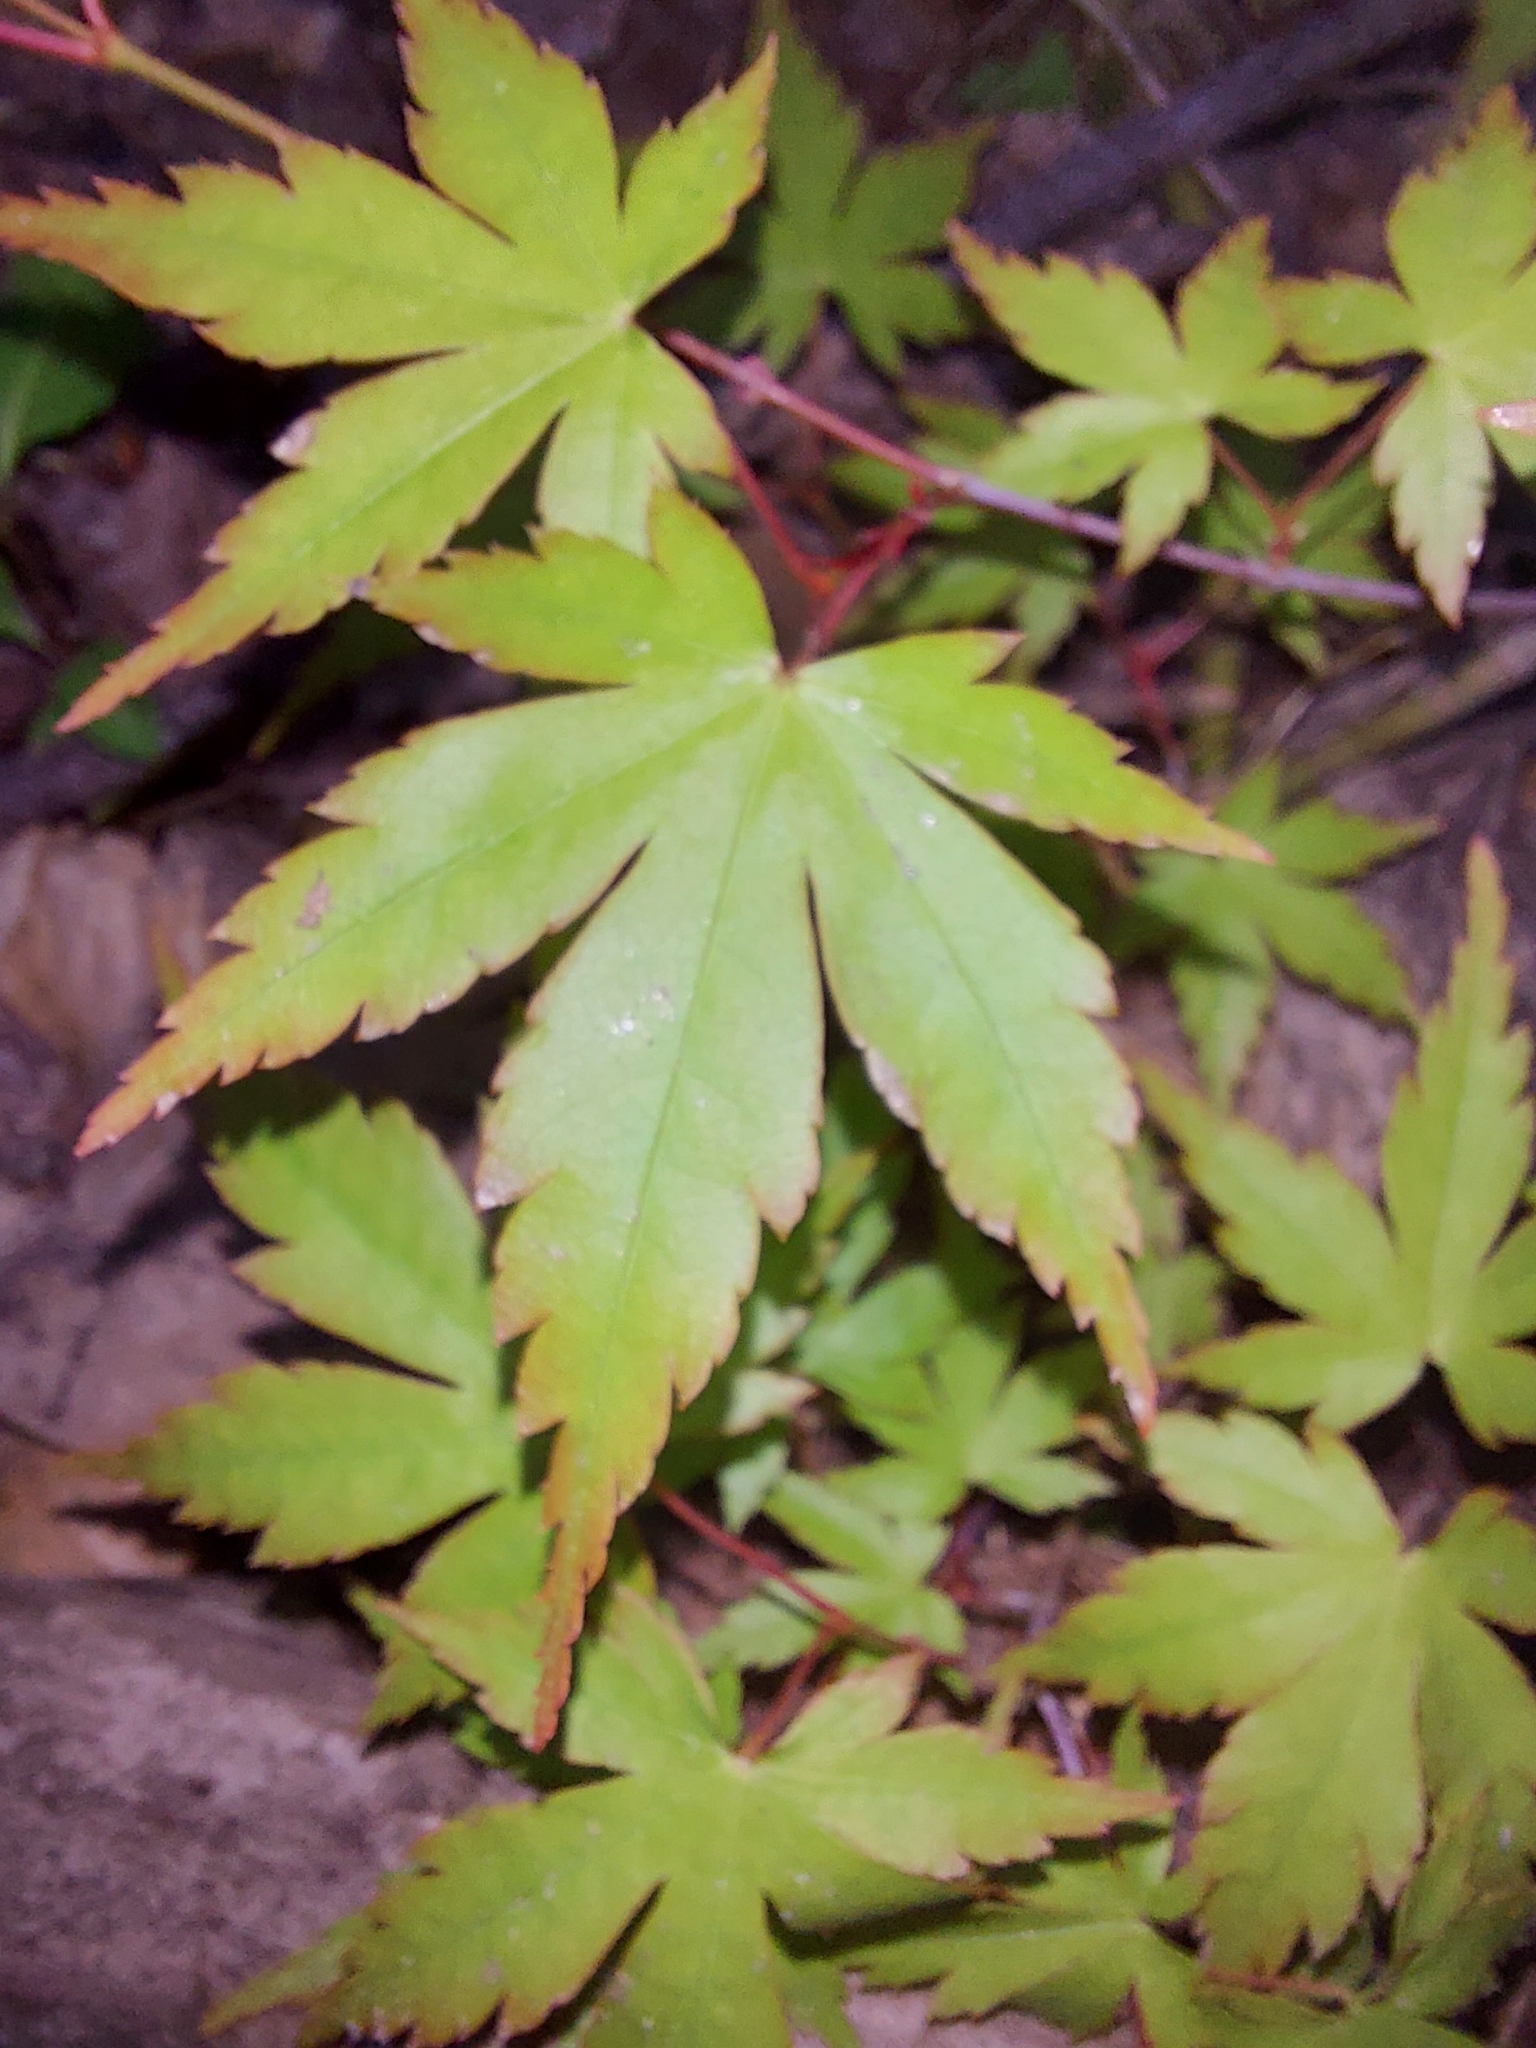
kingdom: Plantae
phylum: Tracheophyta
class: Magnoliopsida
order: Sapindales
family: Sapindaceae
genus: Acer
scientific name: Acer palmatum
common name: Japanese maple
